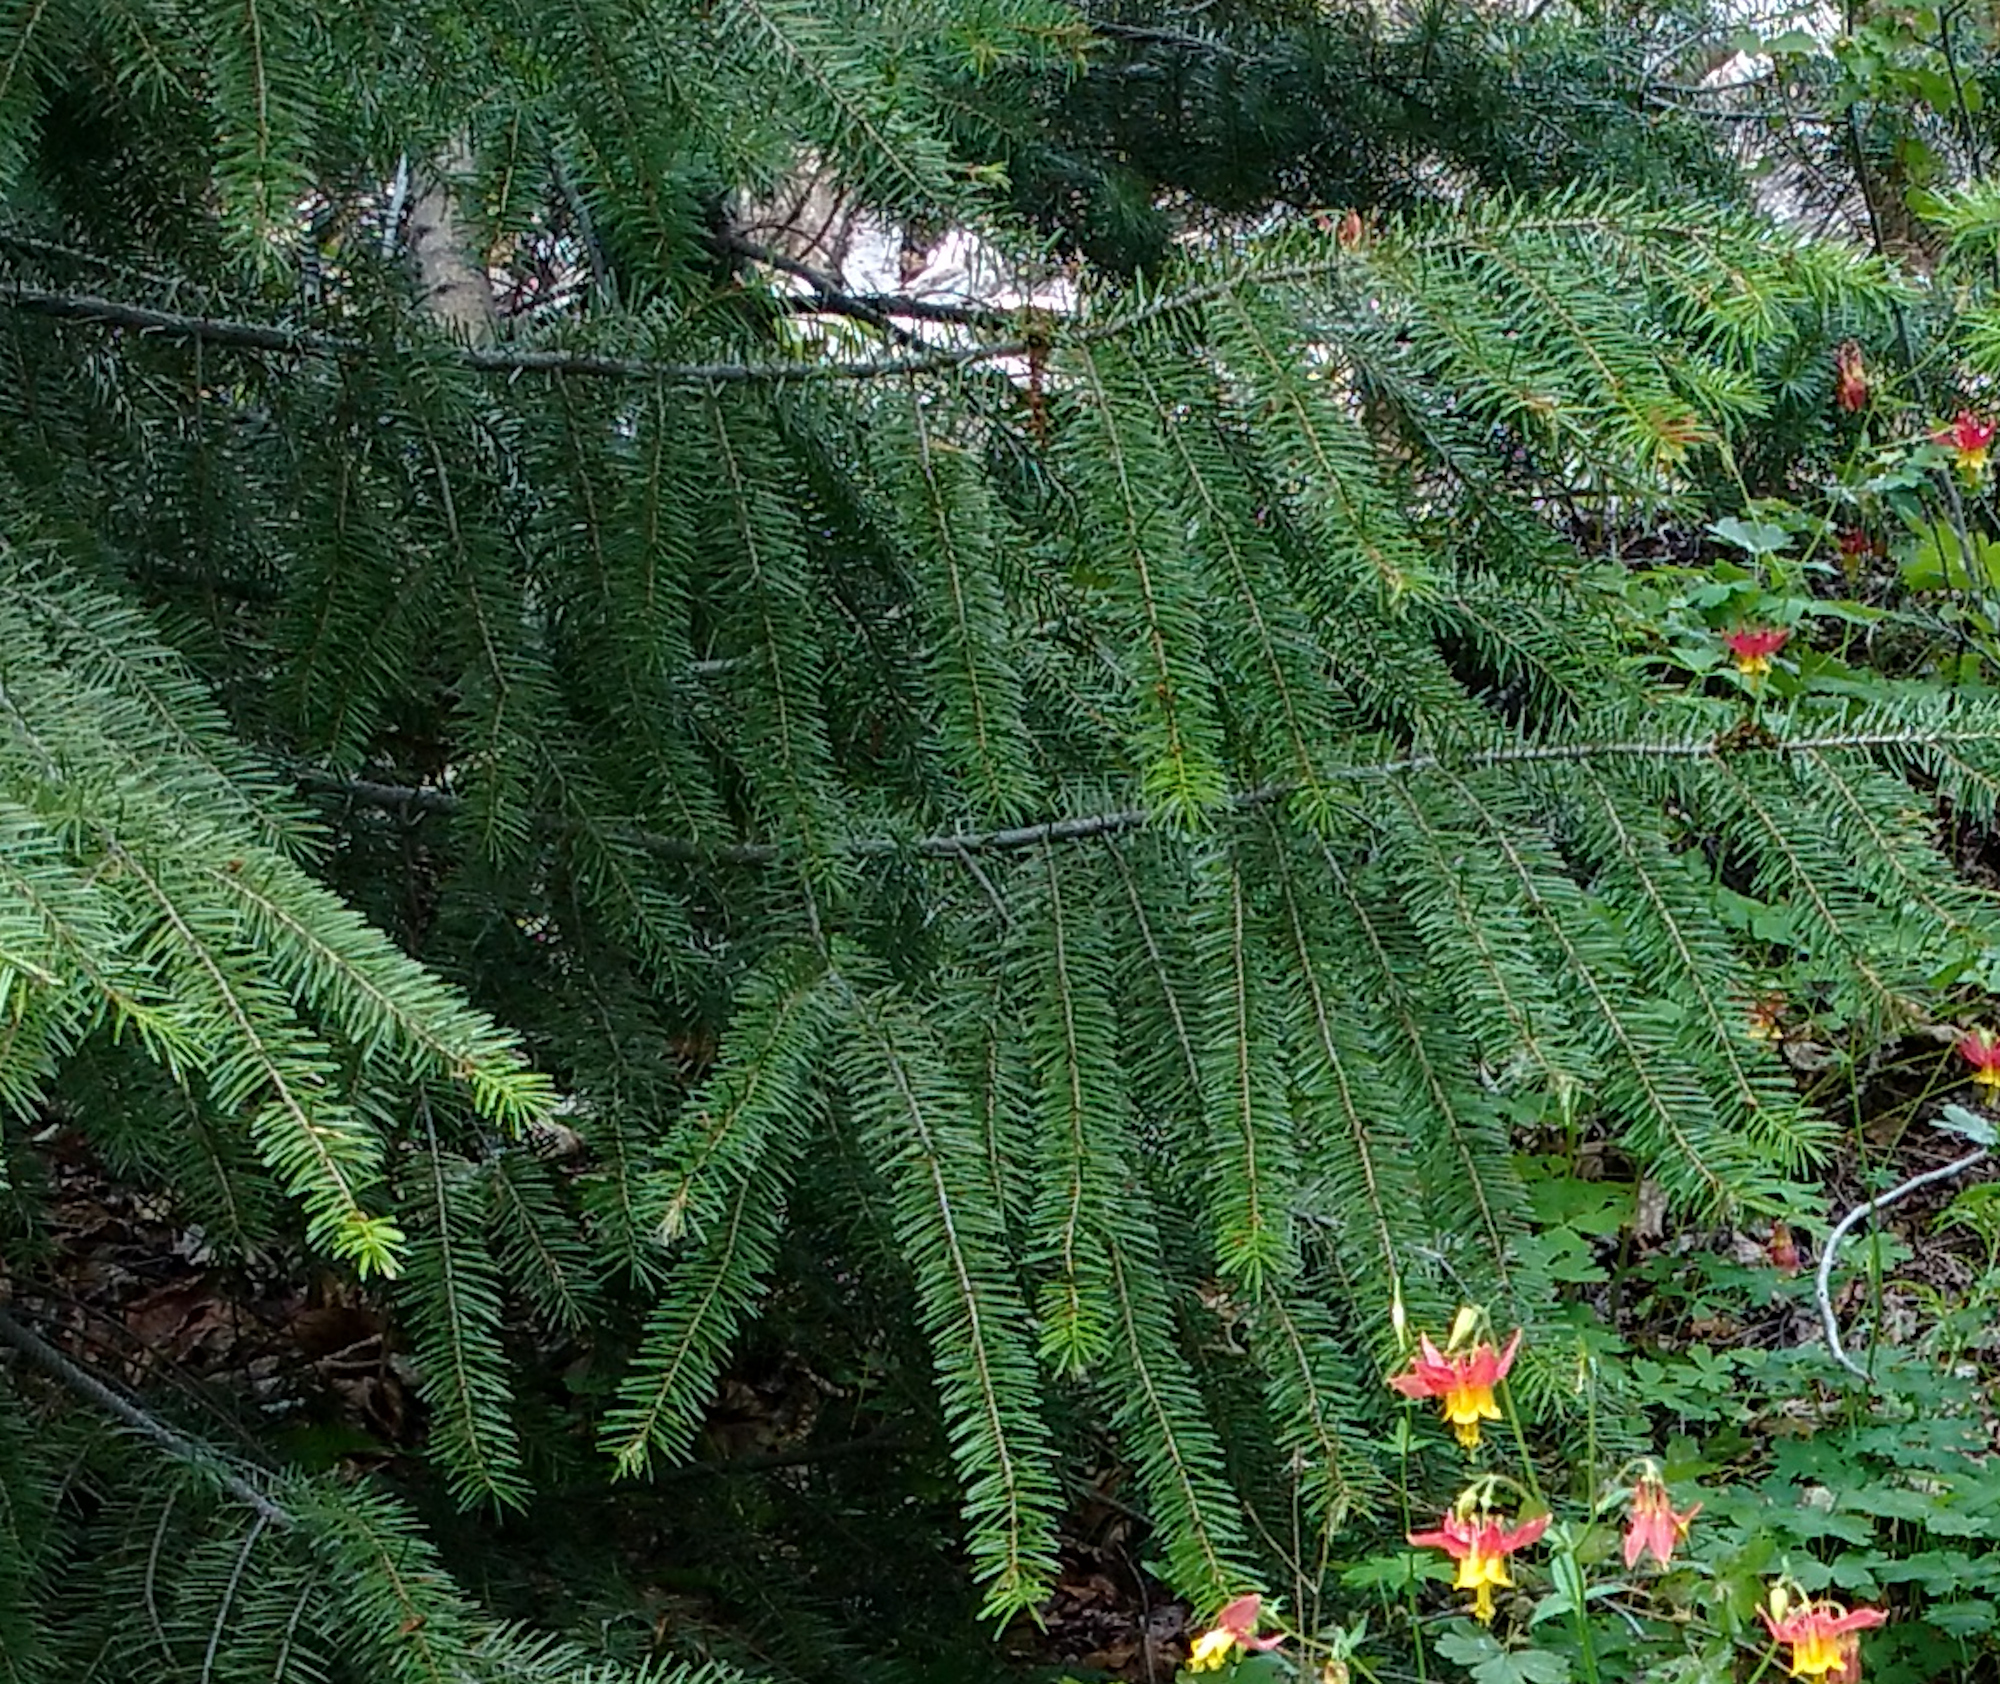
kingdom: Plantae
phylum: Tracheophyta
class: Pinopsida
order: Pinales
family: Pinaceae
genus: Pseudotsuga
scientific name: Pseudotsuga menziesii
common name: Douglas fir
